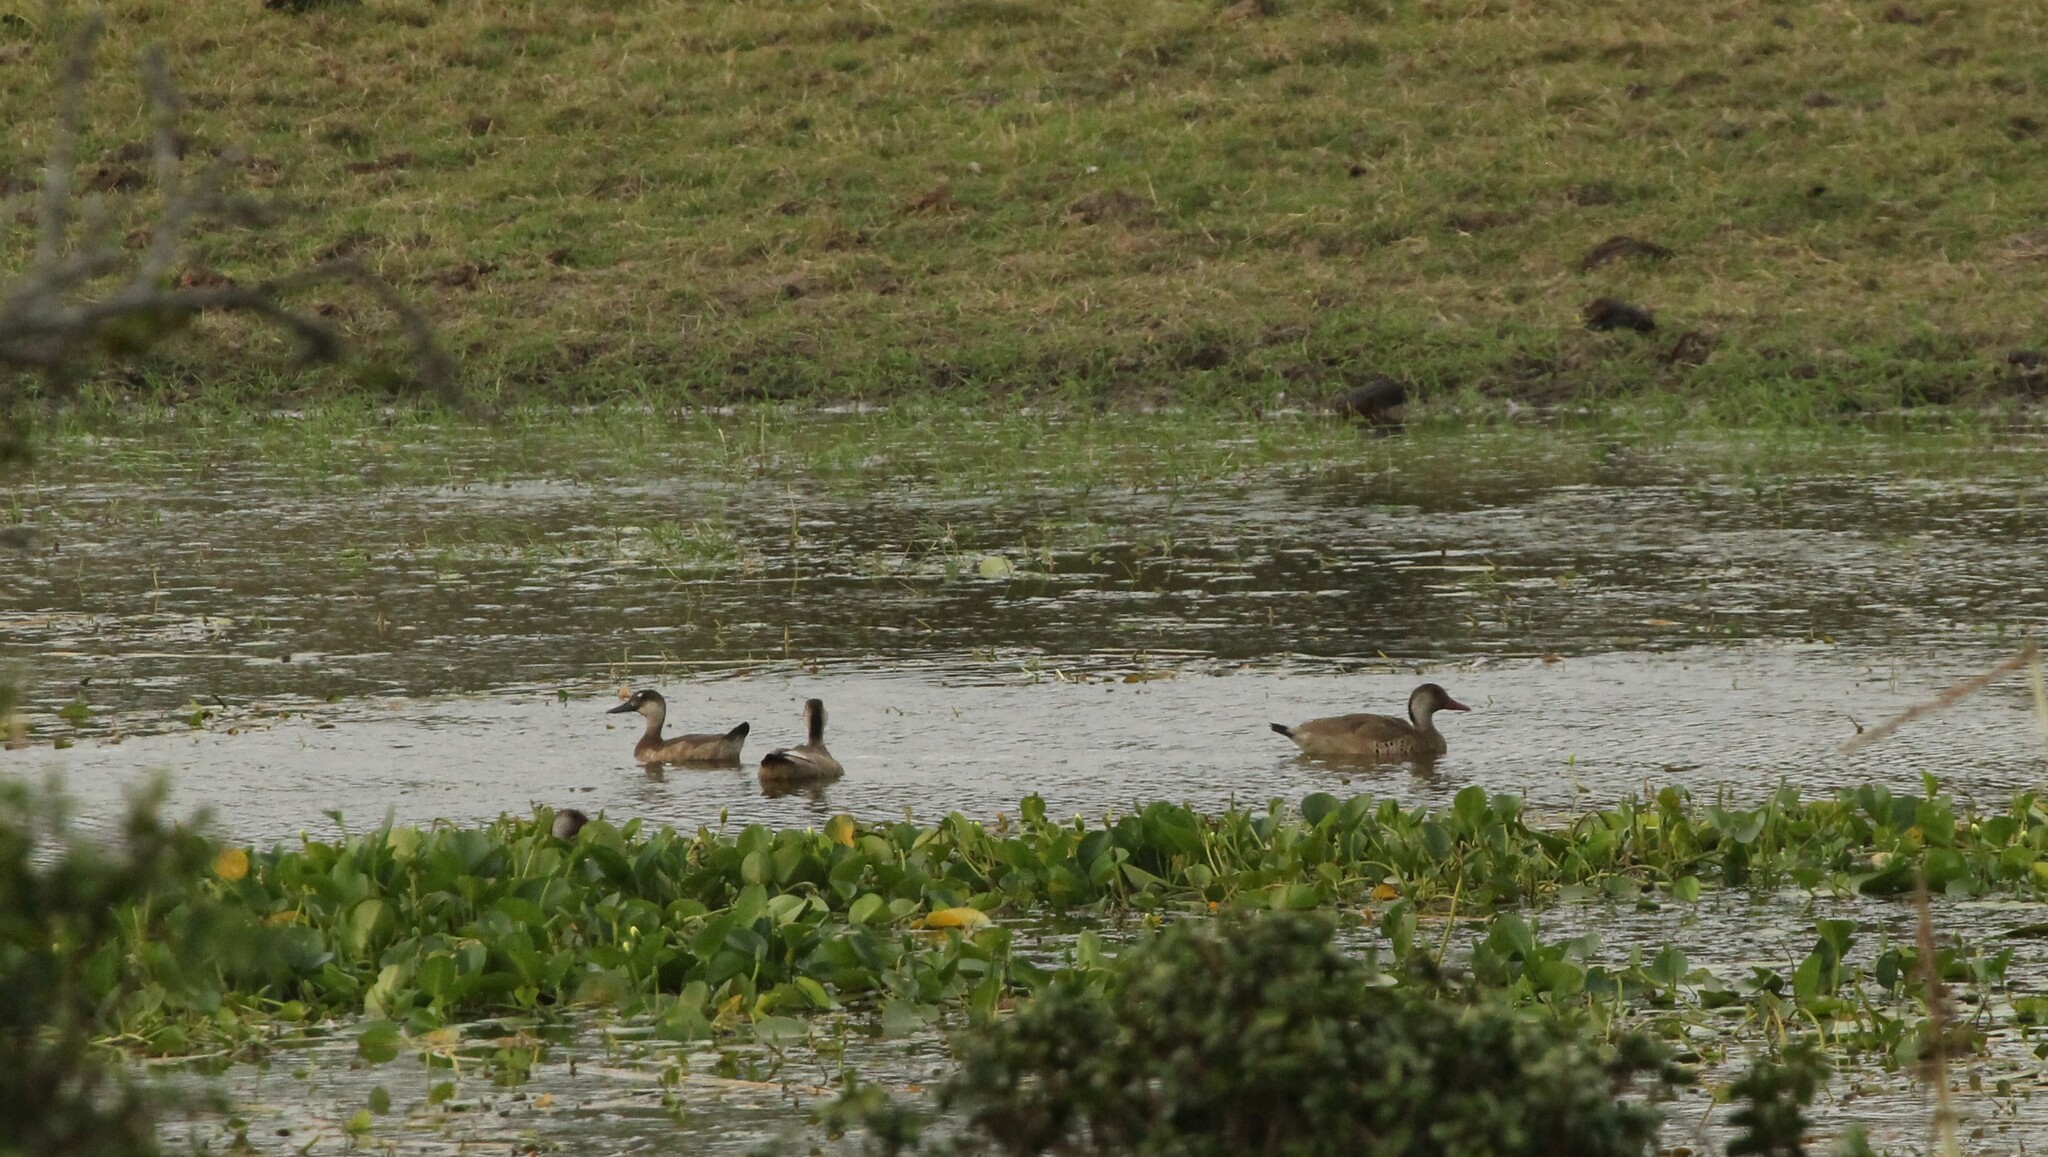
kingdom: Animalia
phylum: Chordata
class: Aves
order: Anseriformes
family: Anatidae
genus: Amazonetta
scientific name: Amazonetta brasiliensis
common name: Brazilian teal
